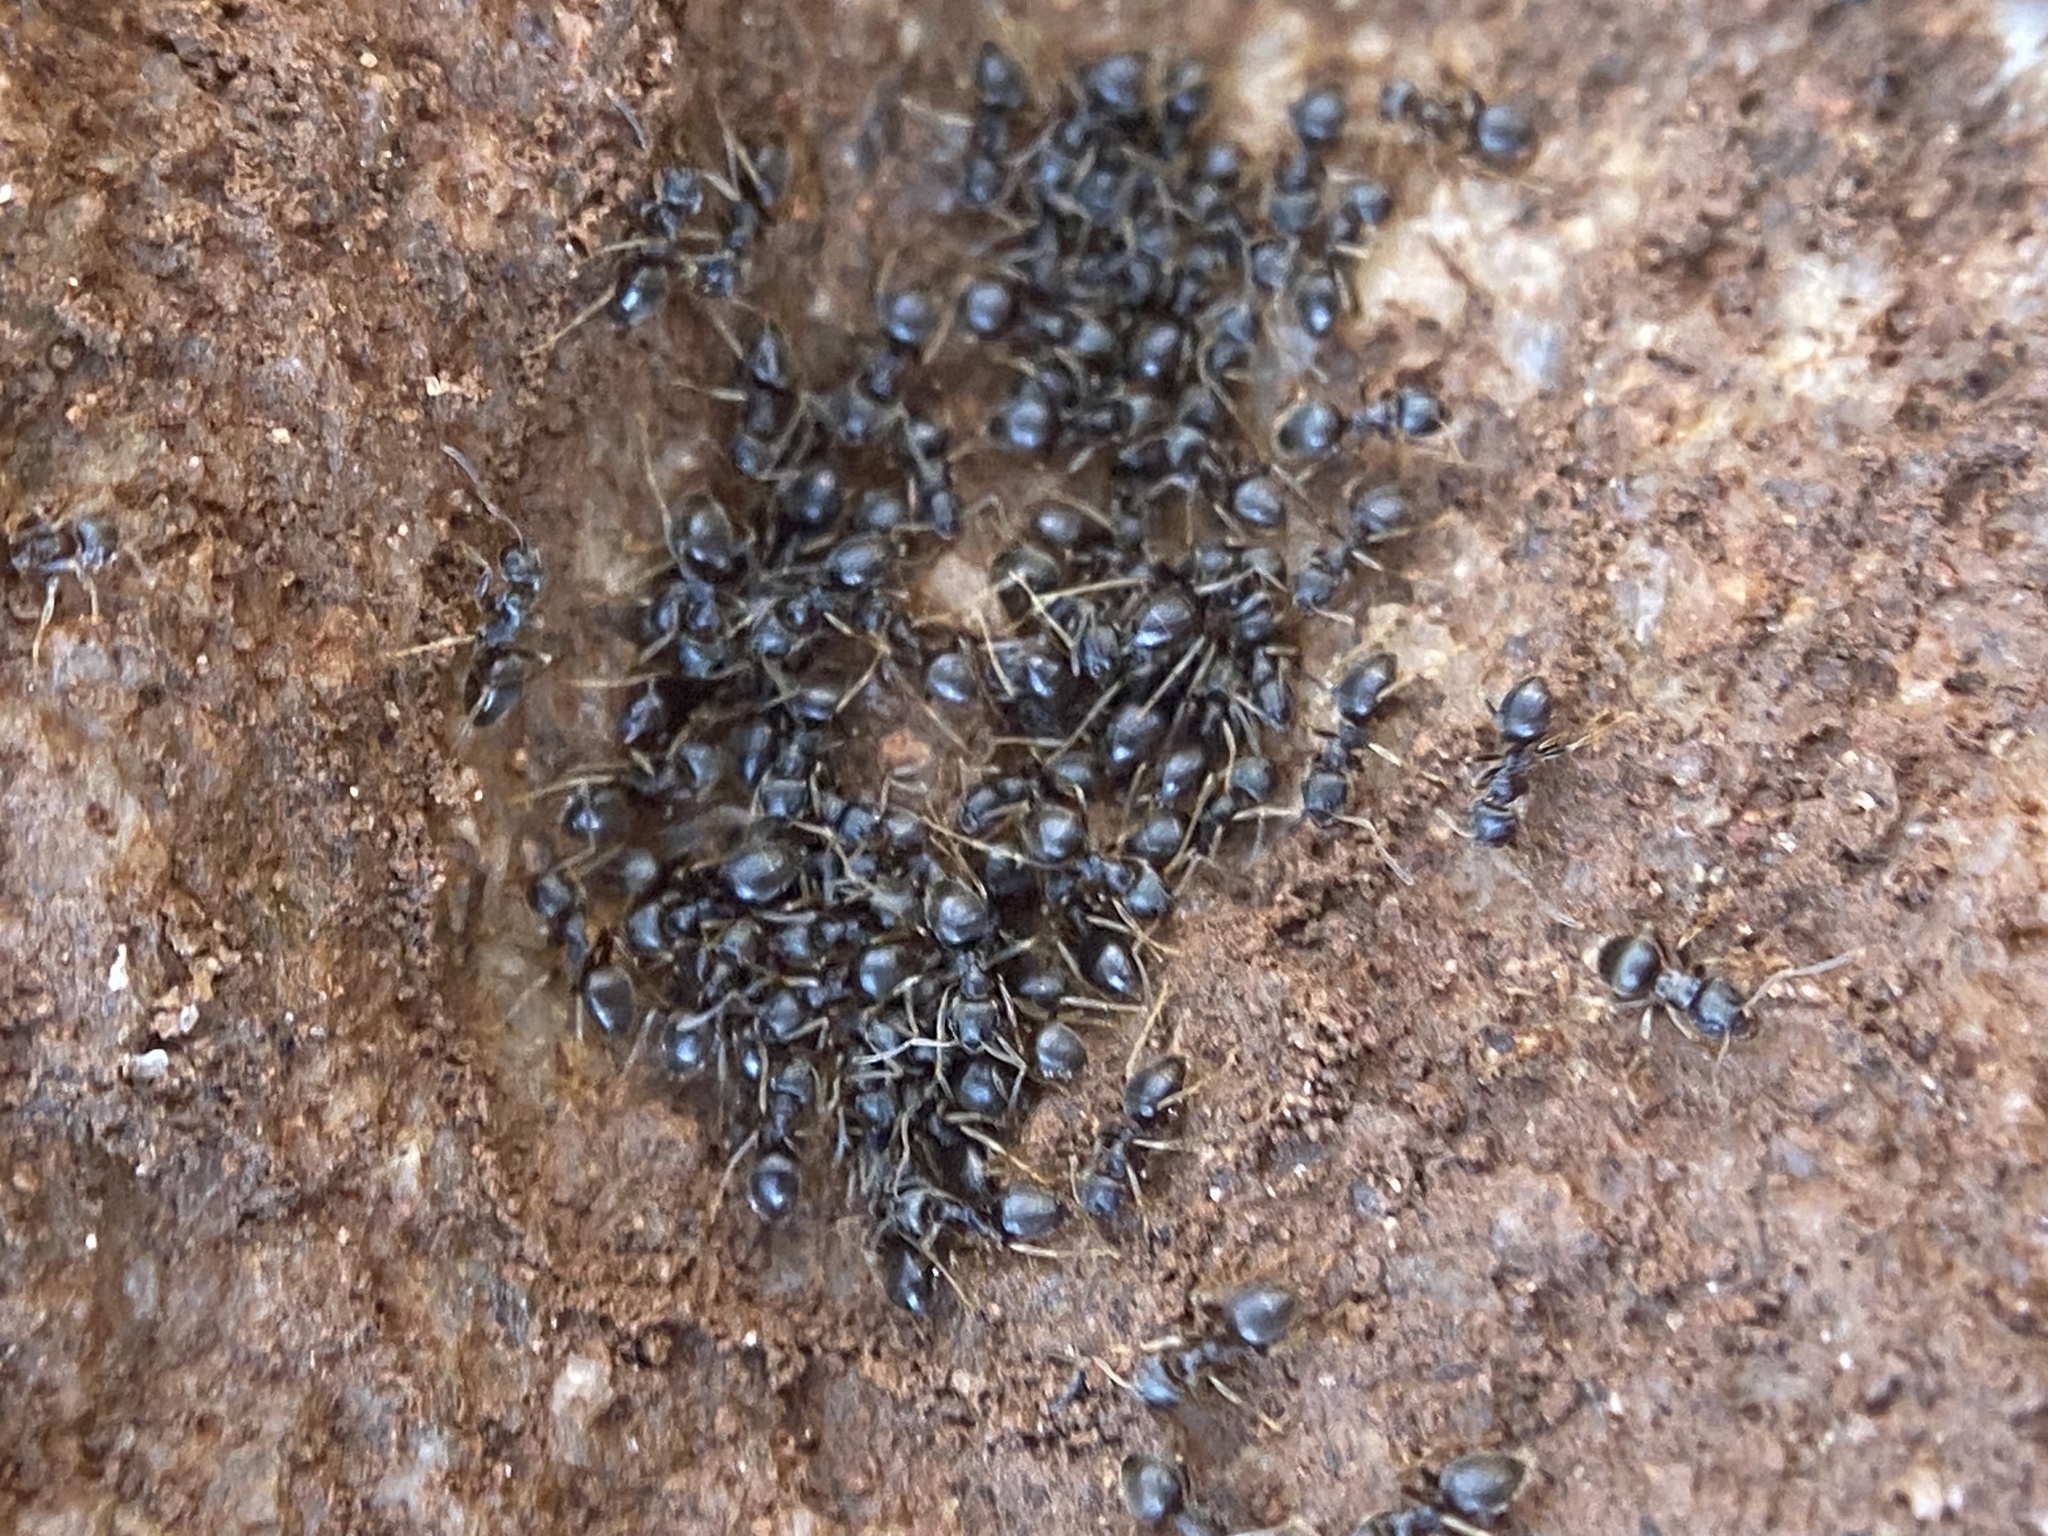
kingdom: Animalia
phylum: Arthropoda
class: Insecta
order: Hymenoptera
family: Formicidae
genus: Lasius
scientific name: Lasius americanus
